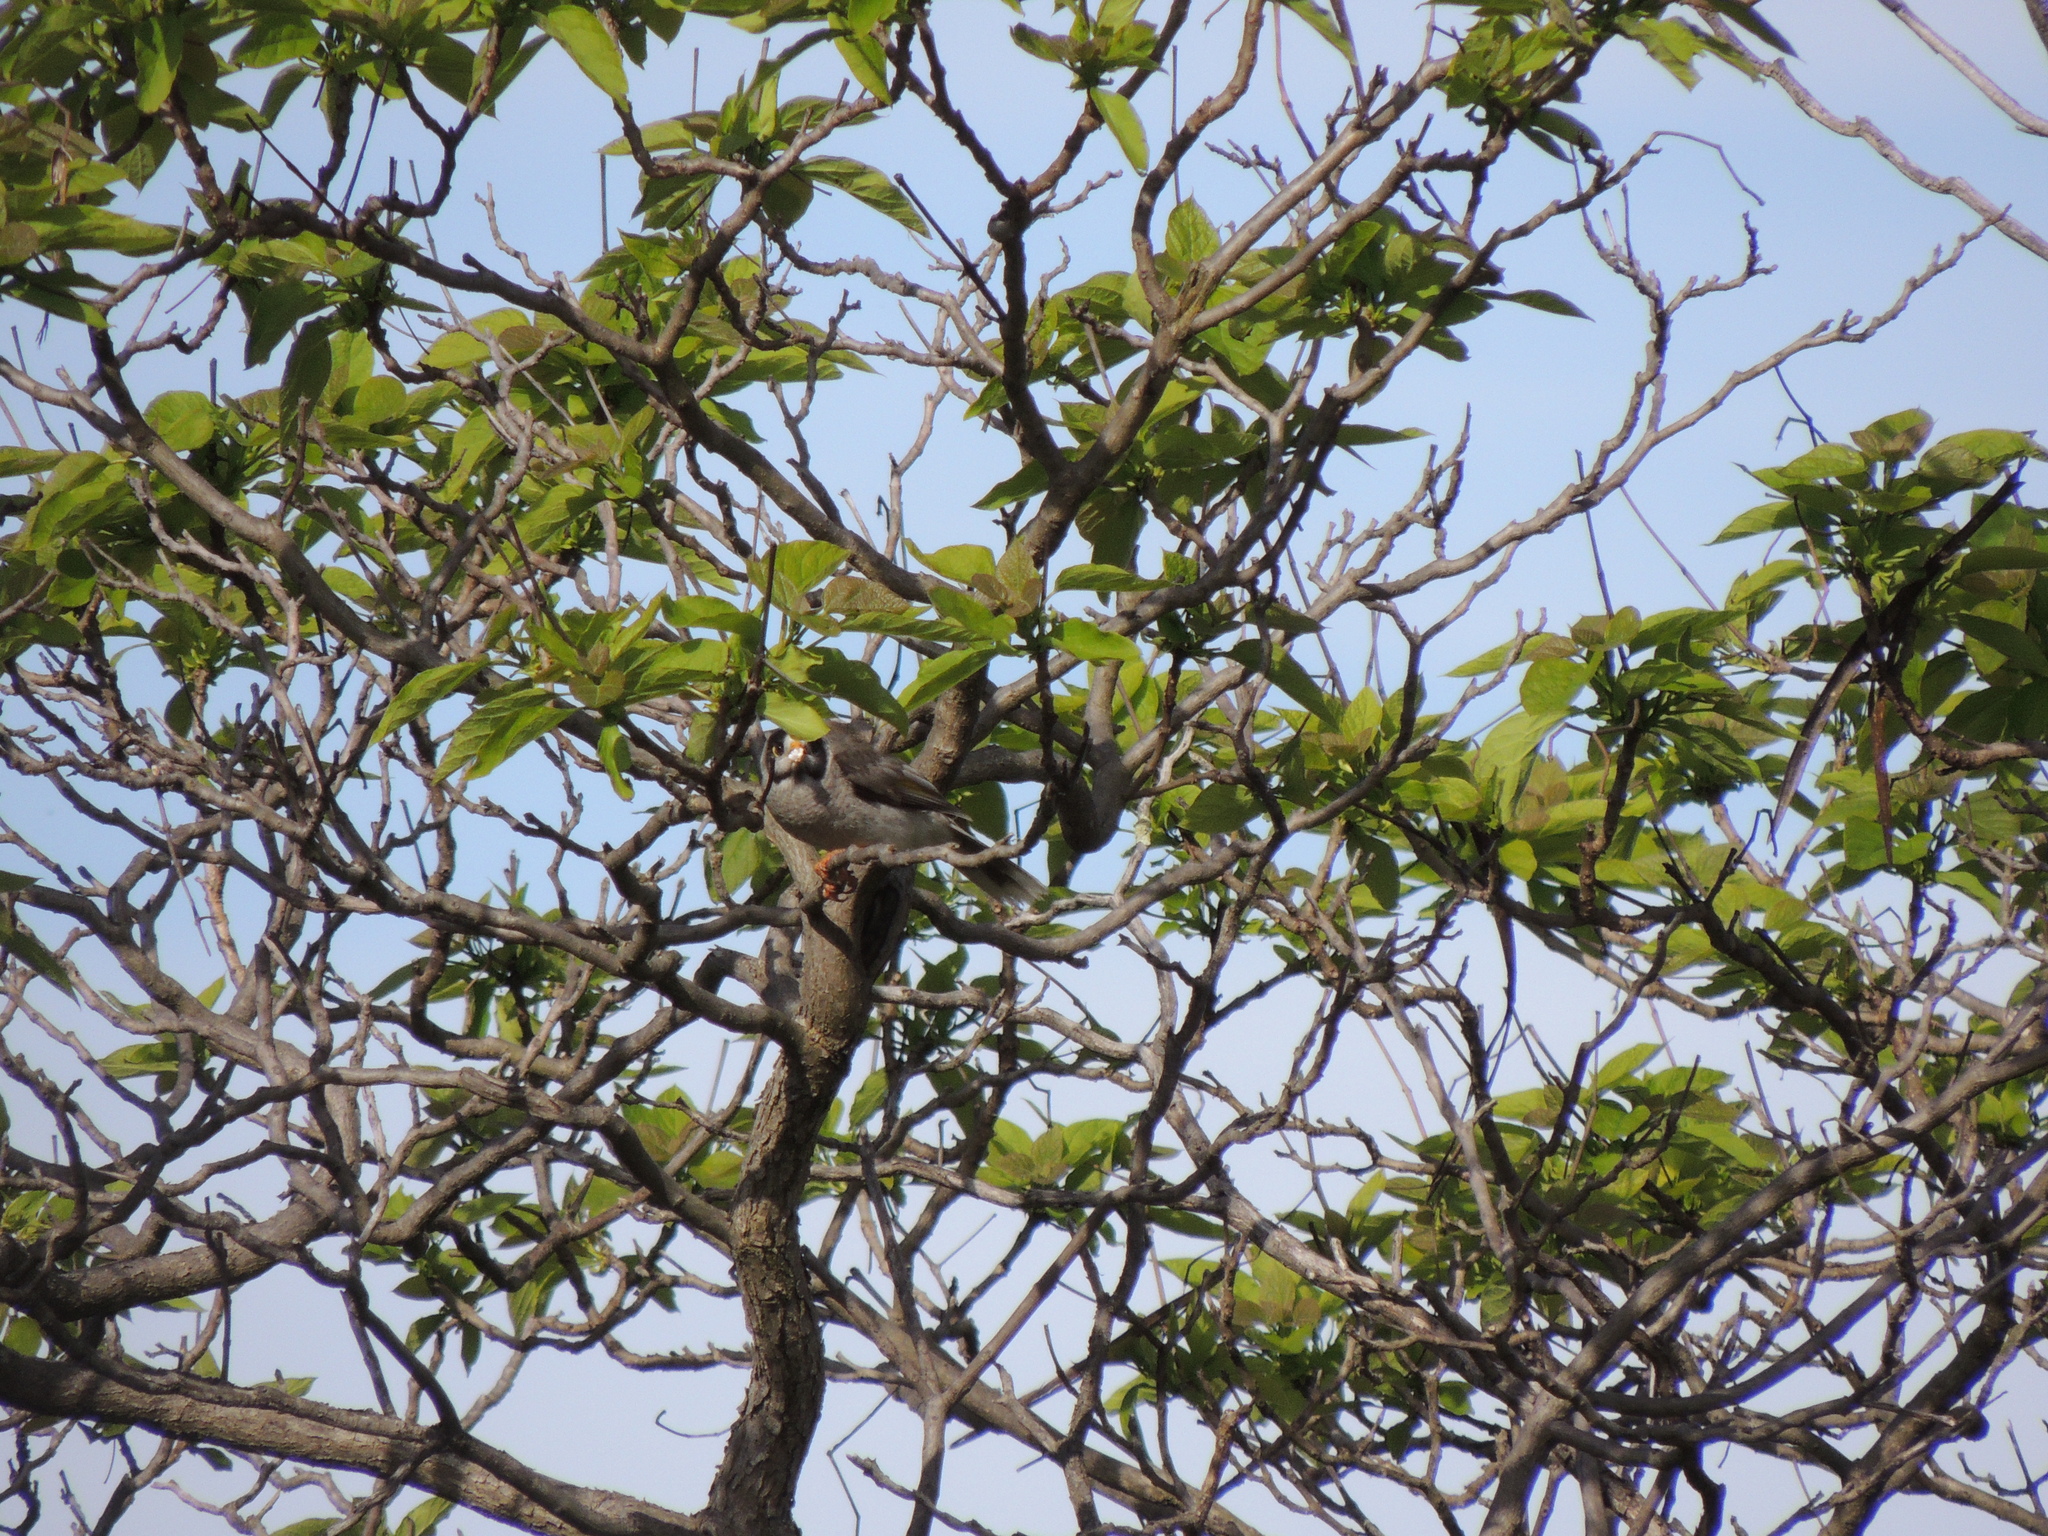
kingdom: Animalia
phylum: Chordata
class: Aves
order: Passeriformes
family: Meliphagidae
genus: Manorina
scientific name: Manorina melanocephala
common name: Noisy miner
